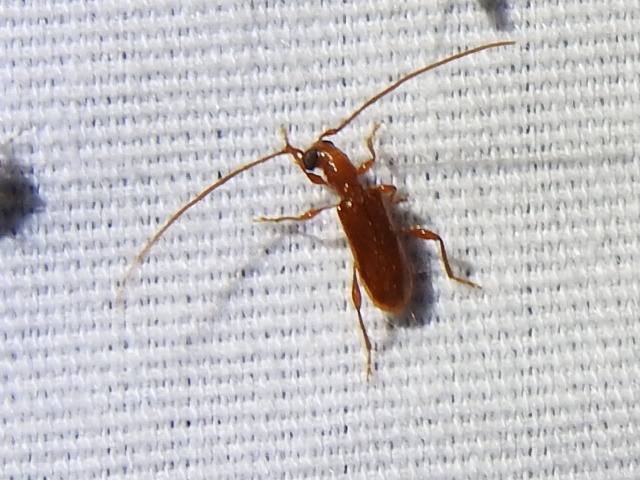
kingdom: Animalia
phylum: Arthropoda
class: Insecta
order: Coleoptera
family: Cerambycidae
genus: Obrium
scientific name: Obrium rufulum
